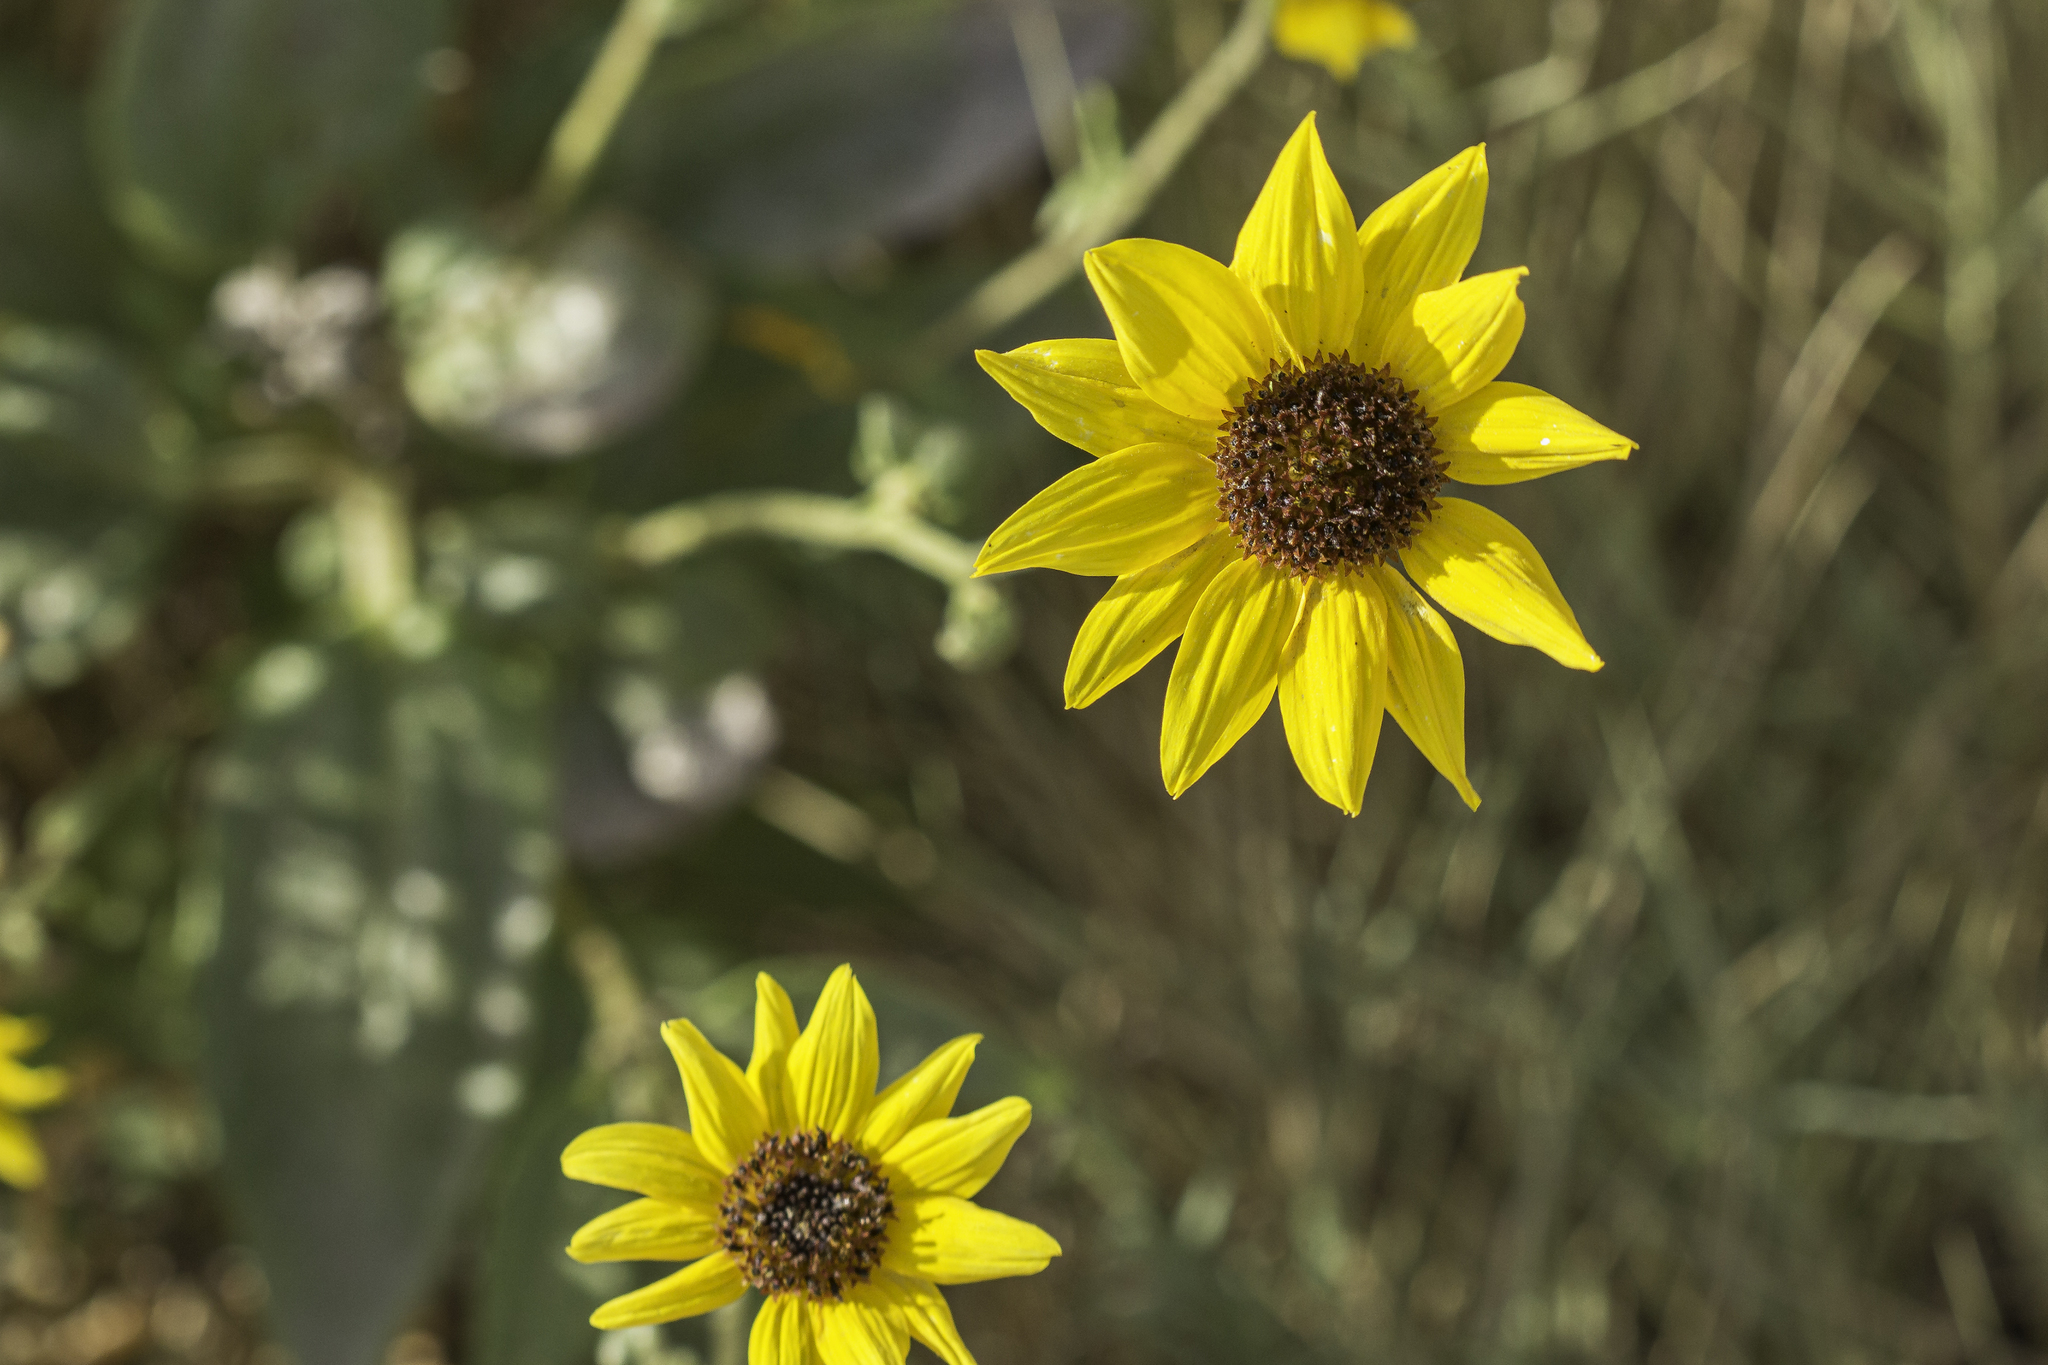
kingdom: Plantae
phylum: Tracheophyta
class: Magnoliopsida
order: Asterales
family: Asteraceae
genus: Helianthus
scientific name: Helianthus paradoxus
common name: Paradoxical sunflower
